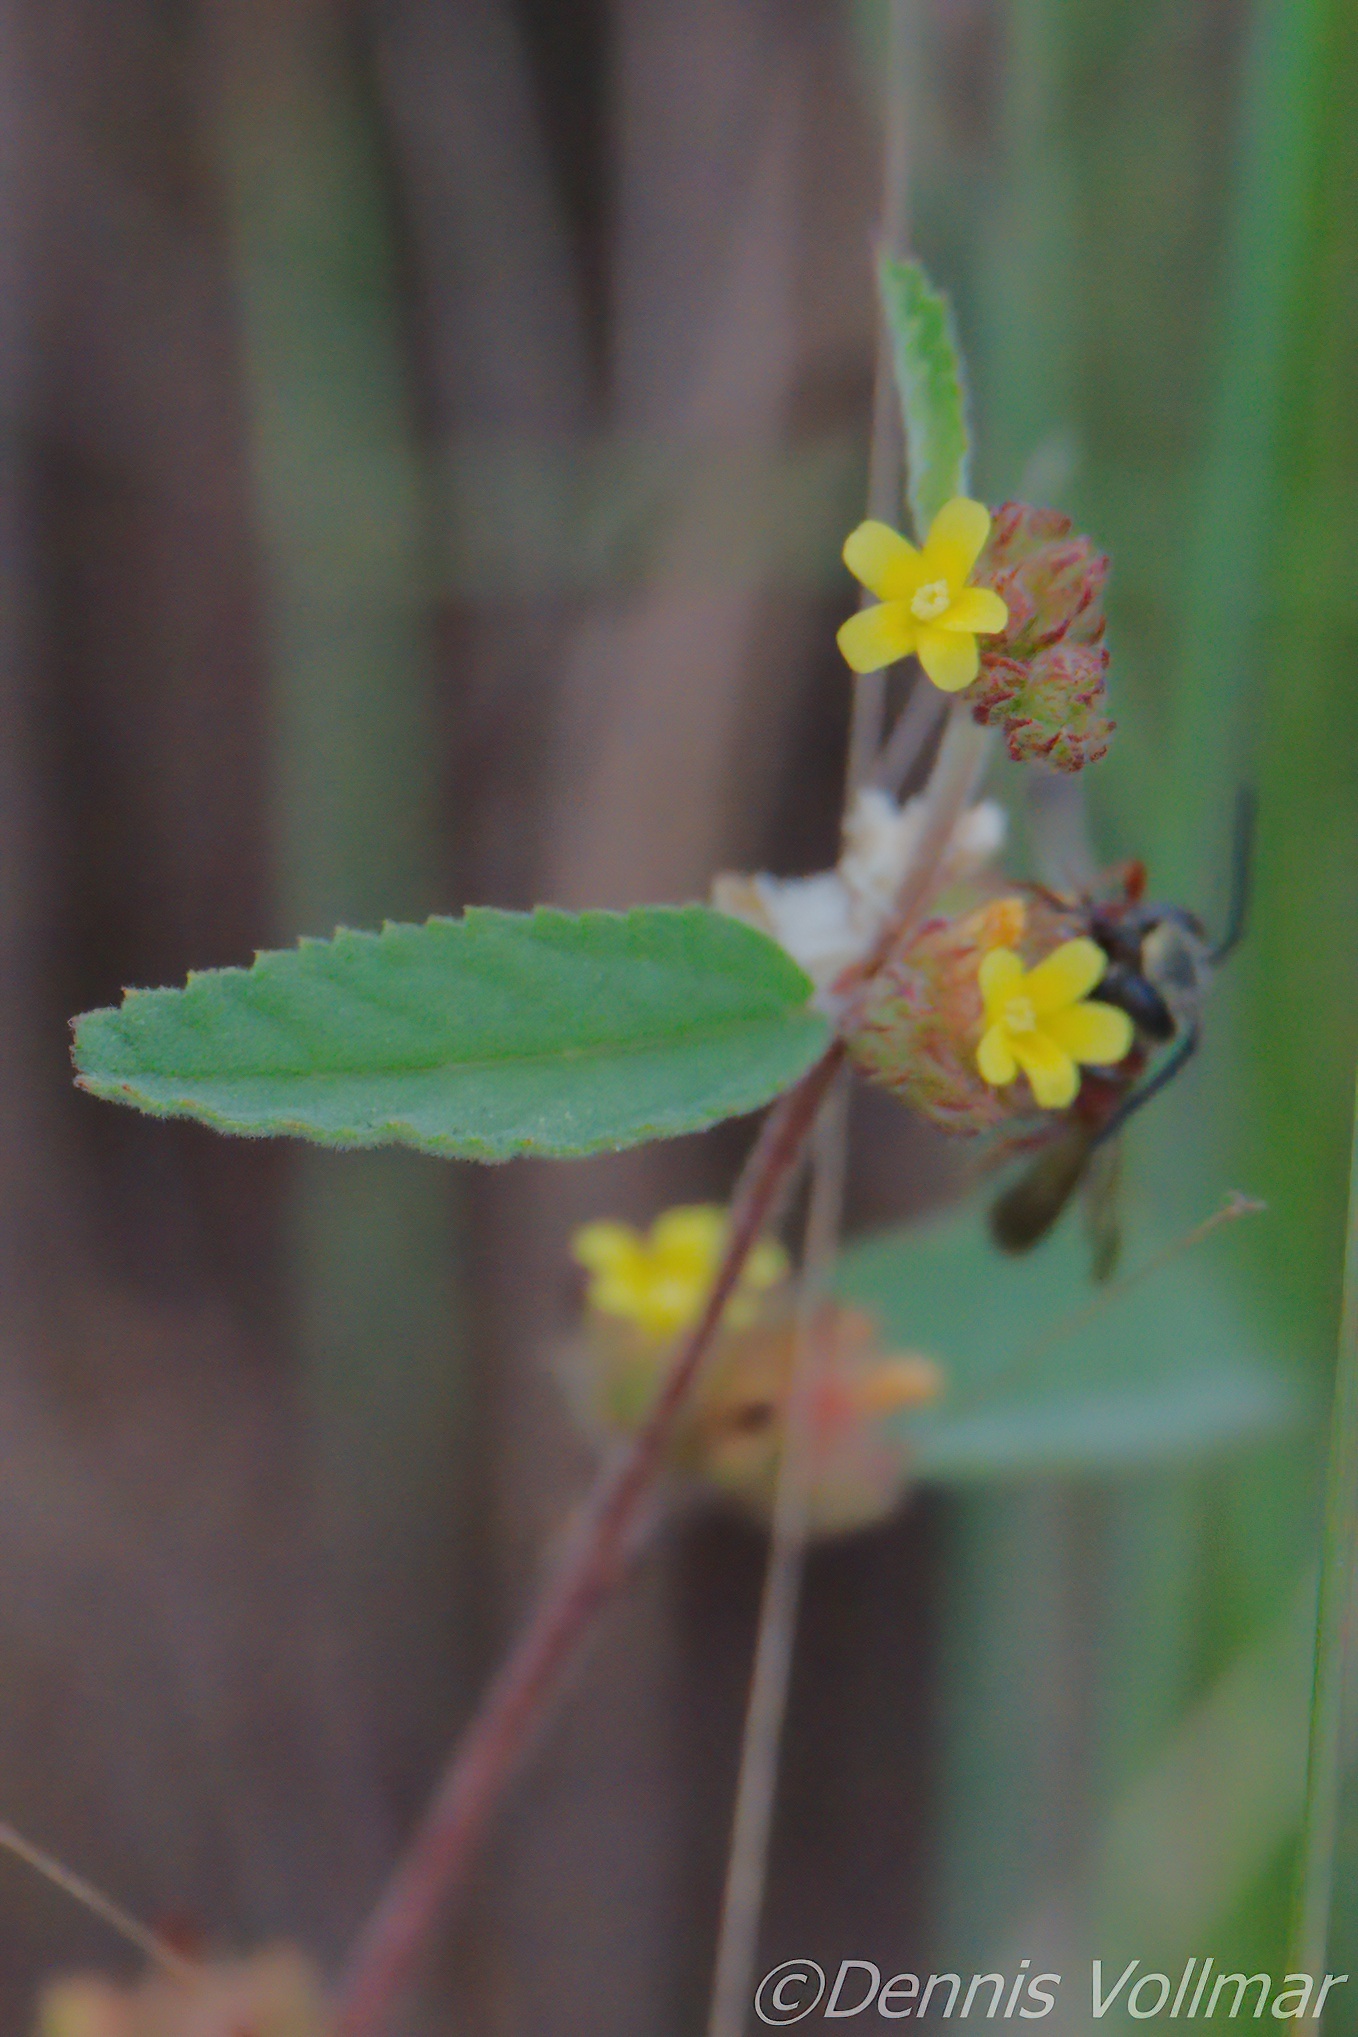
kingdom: Plantae
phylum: Tracheophyta
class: Magnoliopsida
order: Malvales
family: Malvaceae
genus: Waltheria
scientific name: Waltheria indica
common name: Leather-coat
